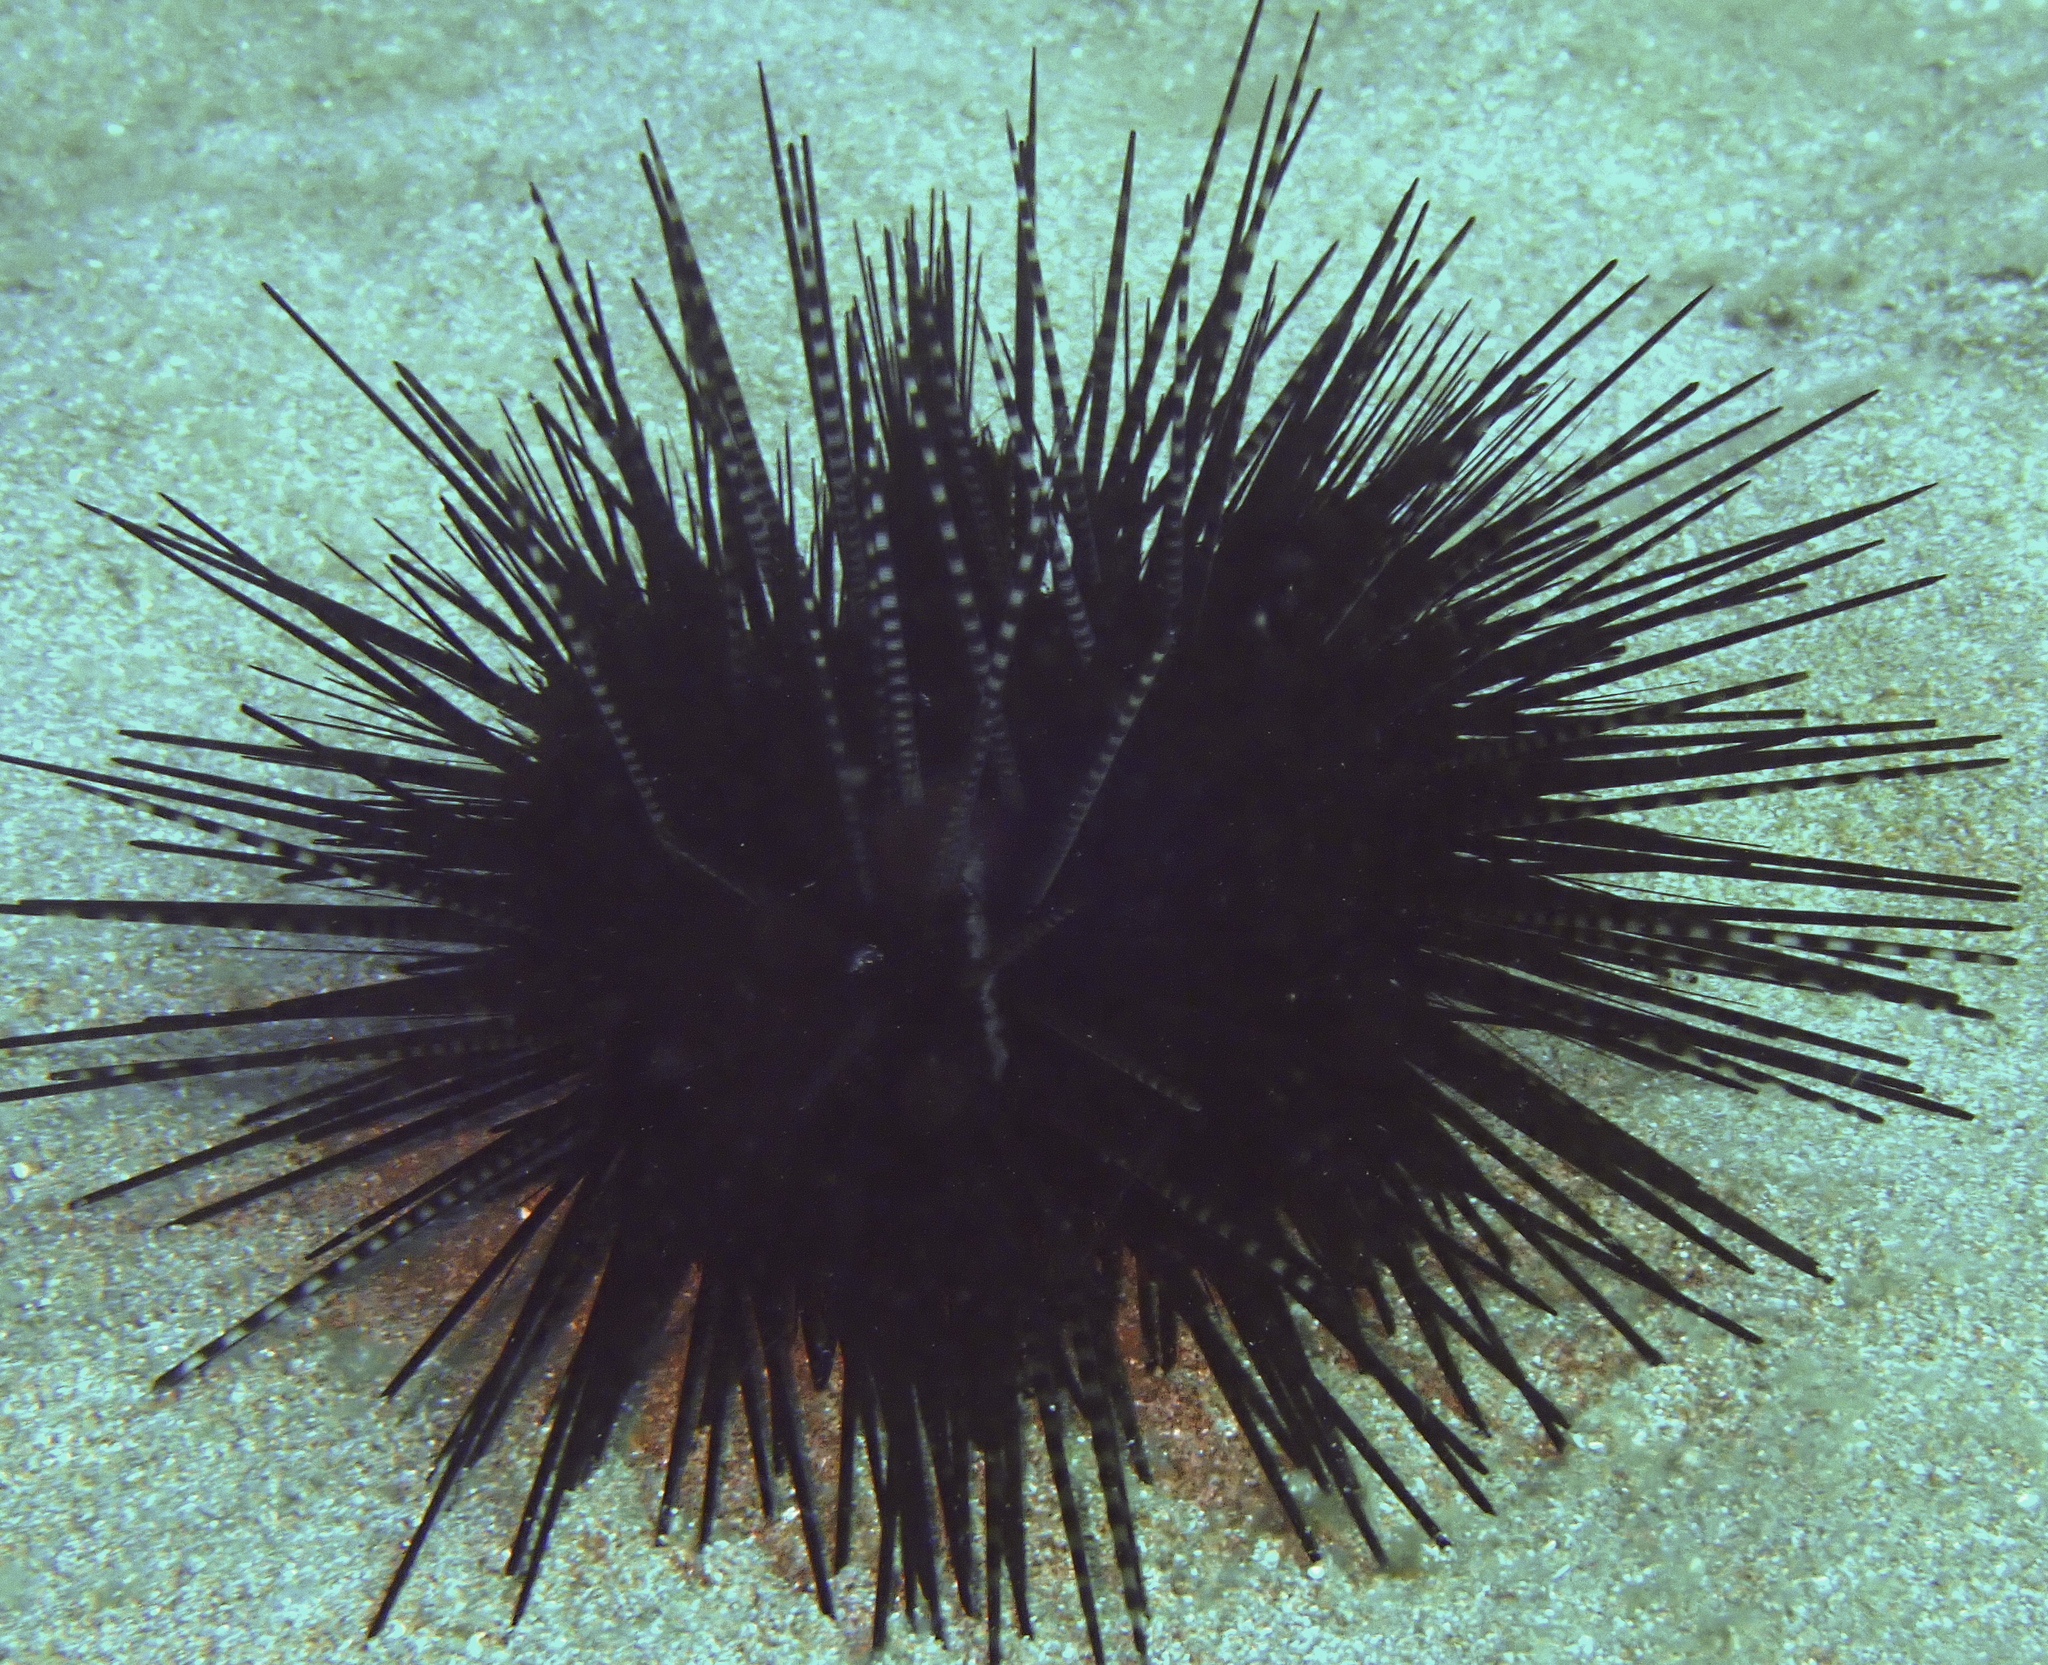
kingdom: Animalia
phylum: Echinodermata
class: Echinoidea
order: Diadematoida
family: Diadematidae
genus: Echinothrix
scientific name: Echinothrix calamaris
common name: Banded sea urchin
